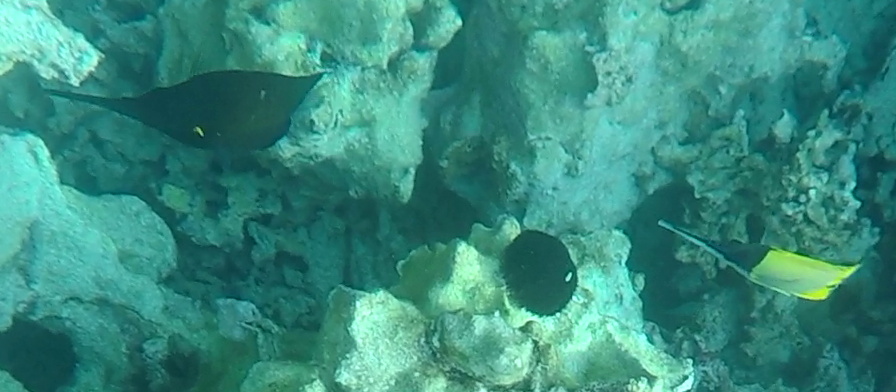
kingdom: Animalia
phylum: Chordata
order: Perciformes
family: Chaetodontidae
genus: Forcipiger
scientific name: Forcipiger longirostris
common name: Longnose butterflyfish
